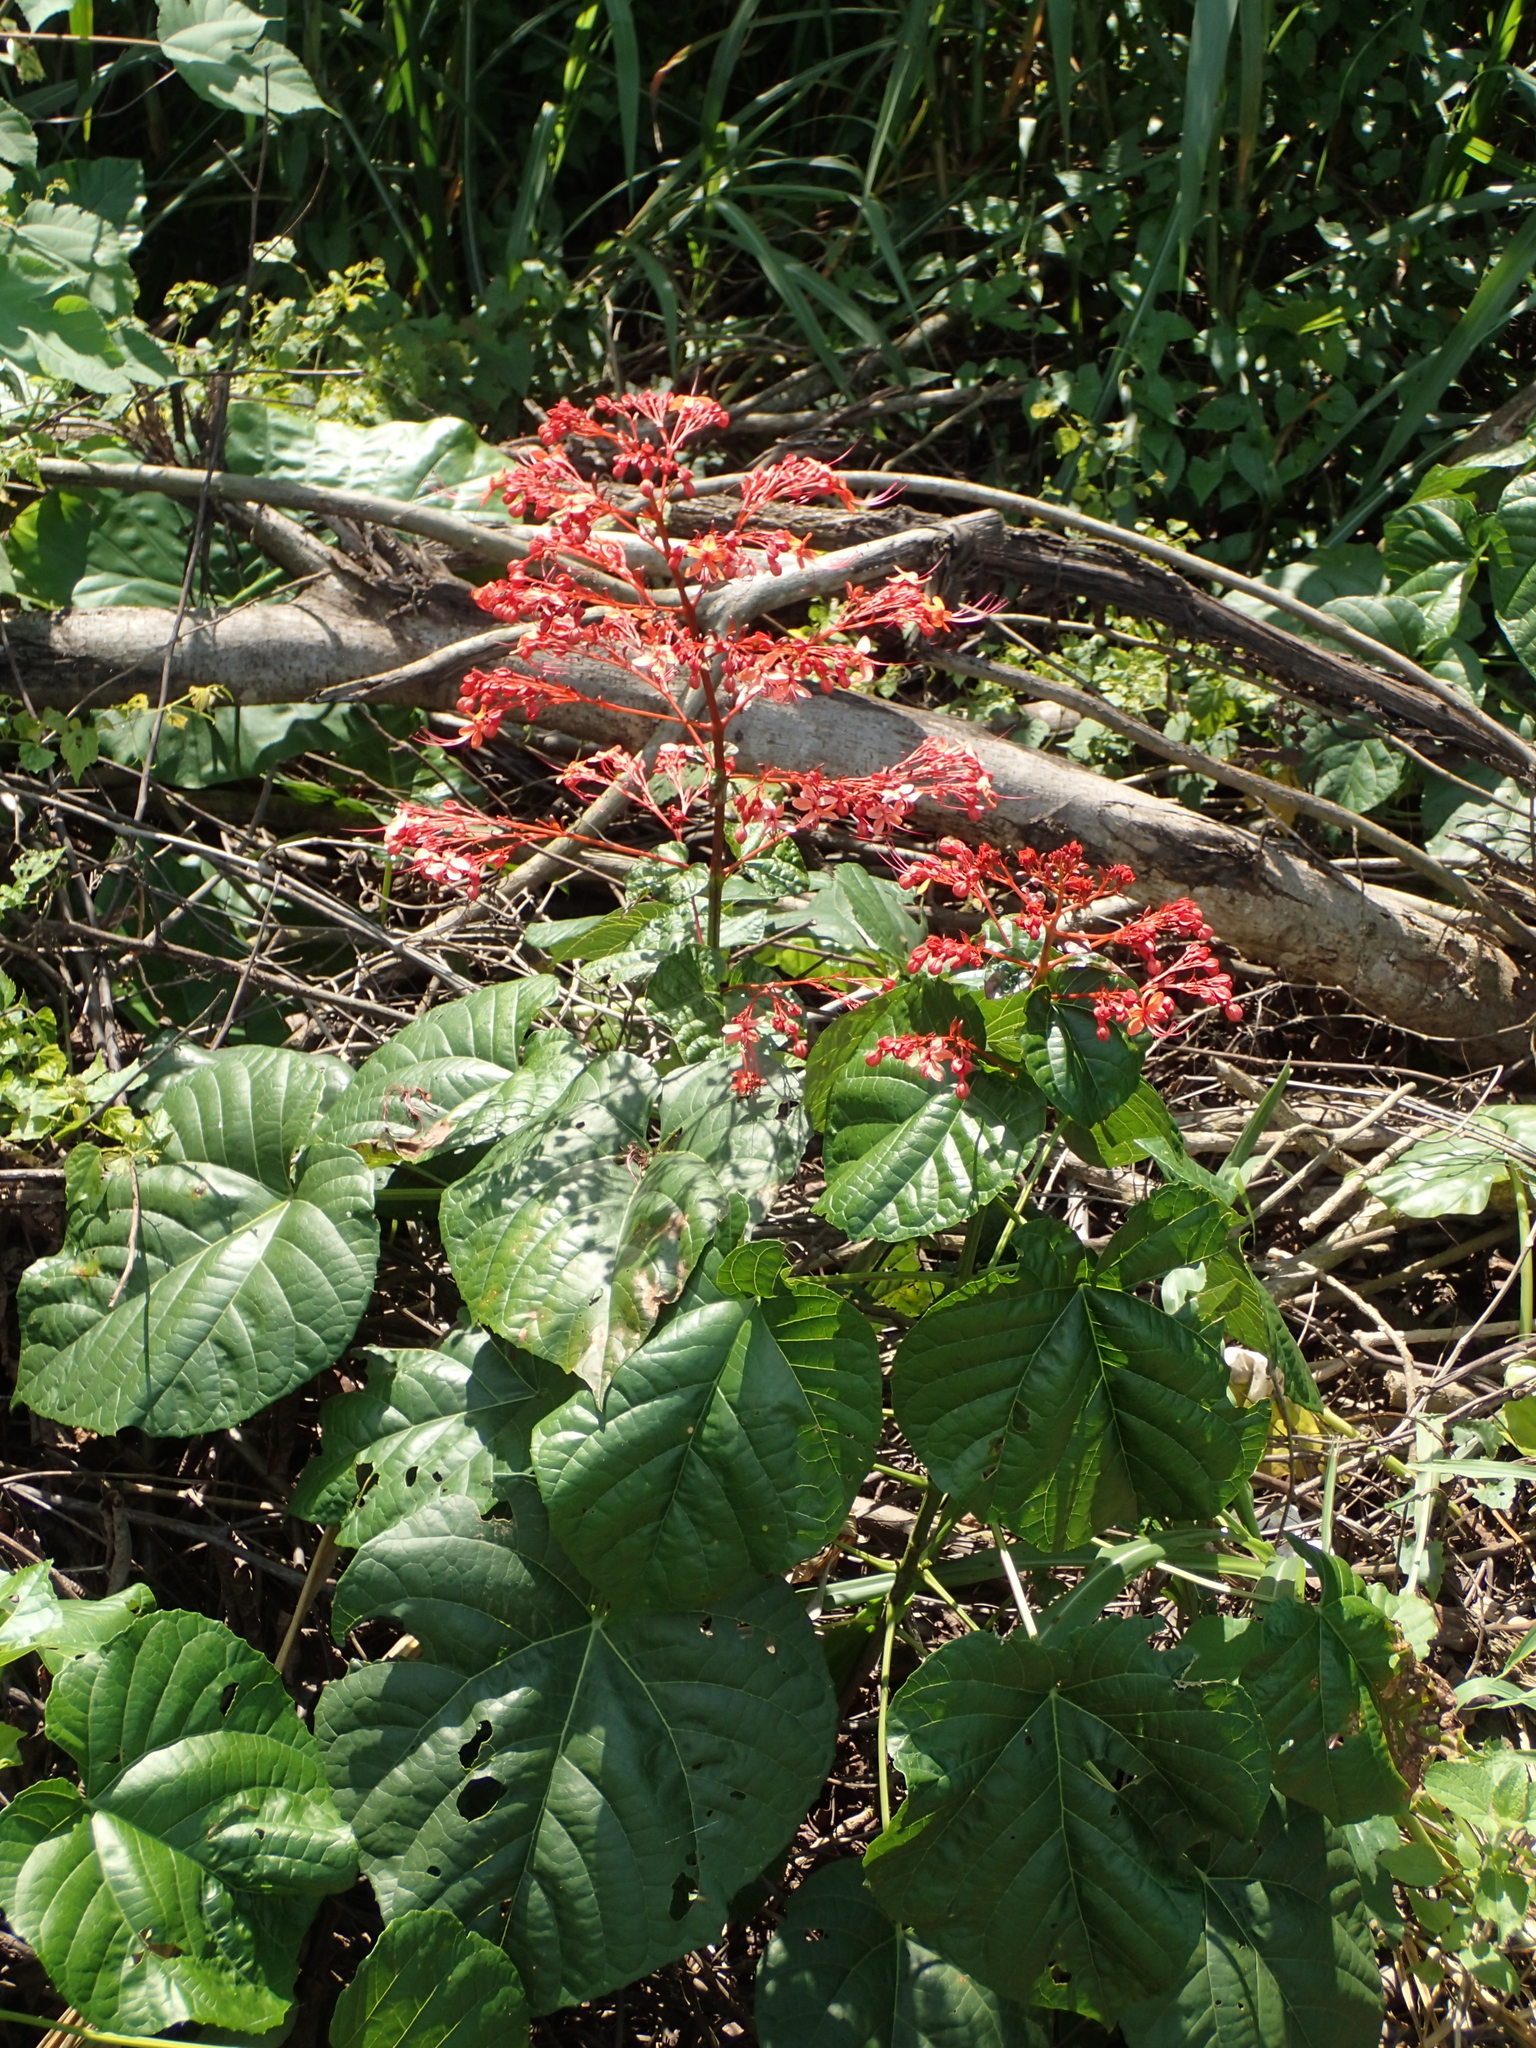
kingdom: Plantae
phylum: Tracheophyta
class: Magnoliopsida
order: Lamiales
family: Lamiaceae
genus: Clerodendrum
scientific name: Clerodendrum japonicum
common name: Japanese glorybower
